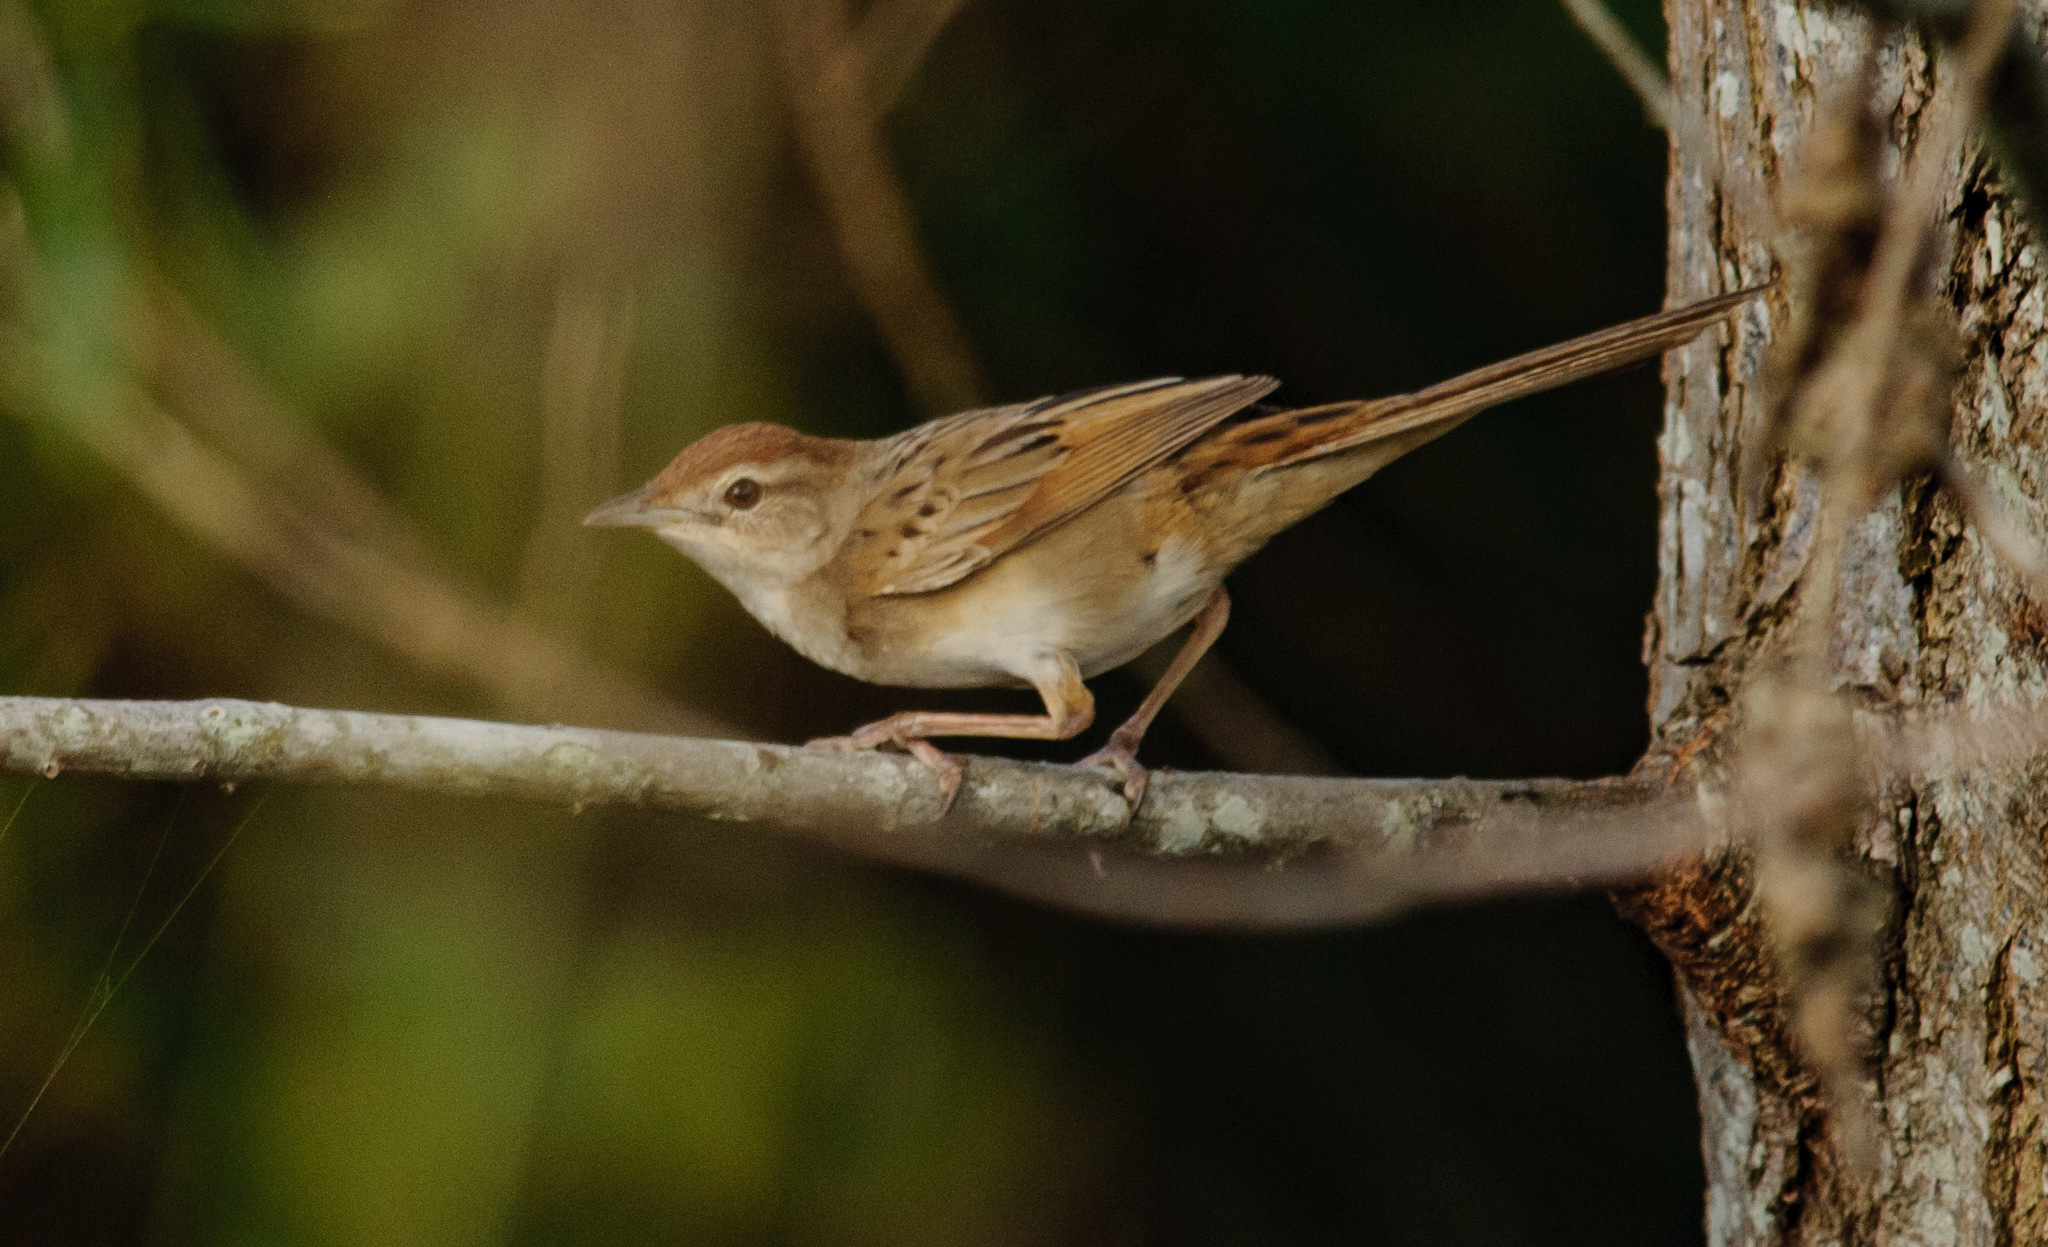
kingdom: Animalia
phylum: Chordata
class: Aves
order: Passeriformes
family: Locustellidae
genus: Megalurus
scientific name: Megalurus timoriensis
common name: Tawny grassbird
